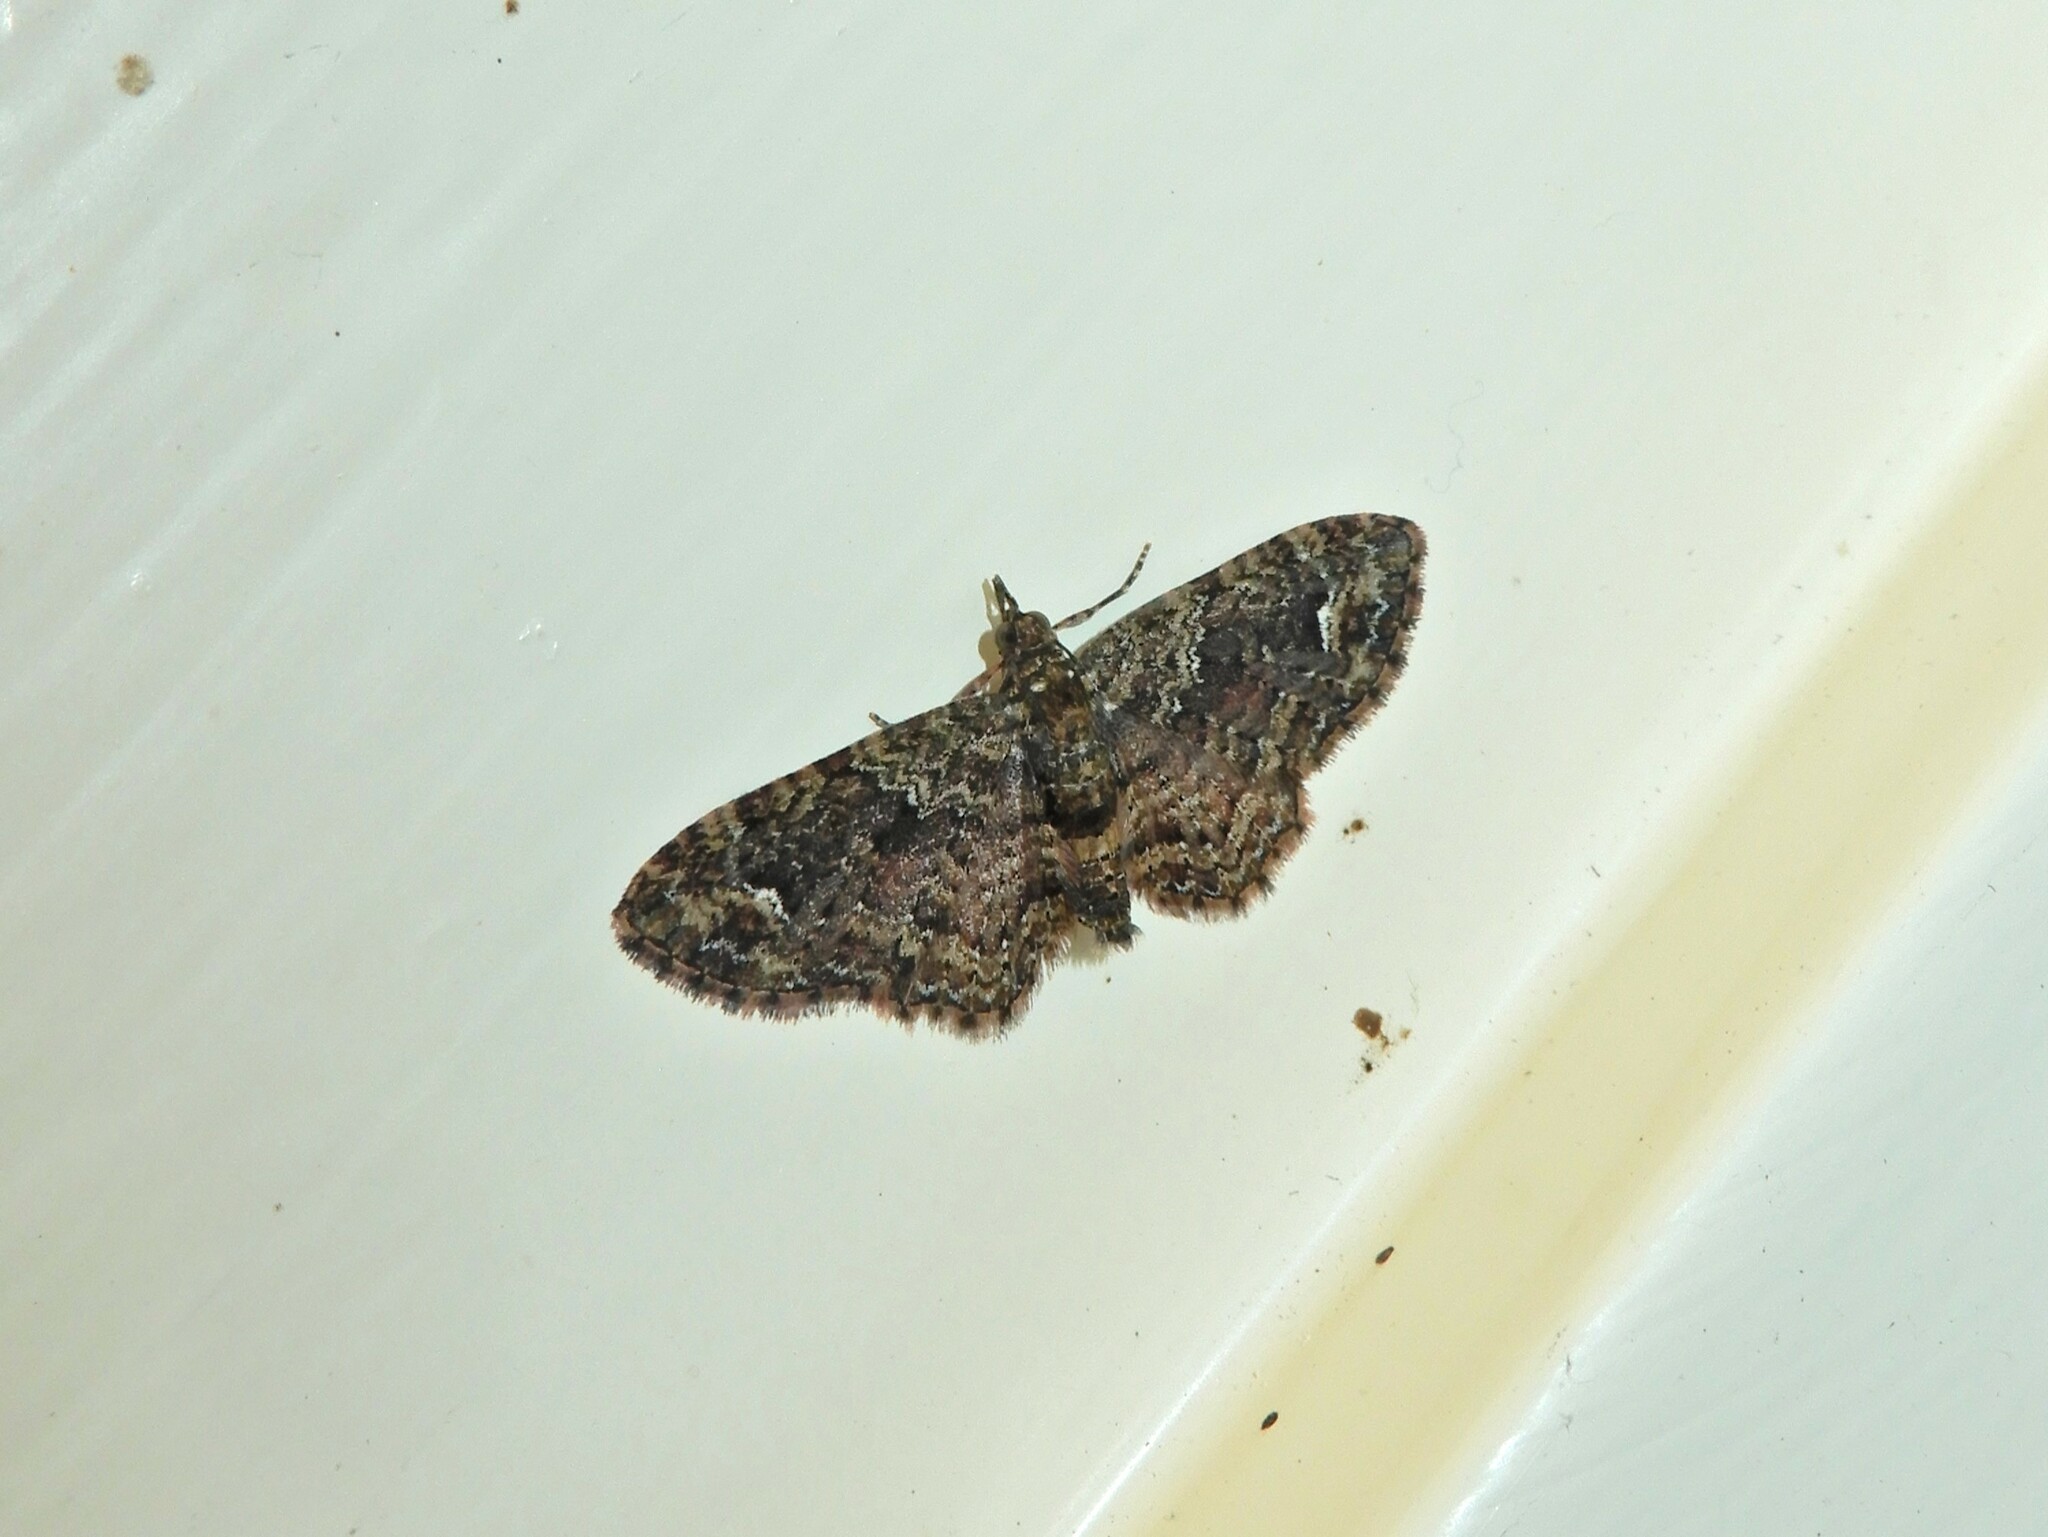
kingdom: Animalia
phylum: Arthropoda
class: Insecta
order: Lepidoptera
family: Geometridae
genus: Pasiphilodes
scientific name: Pasiphilodes testulata
